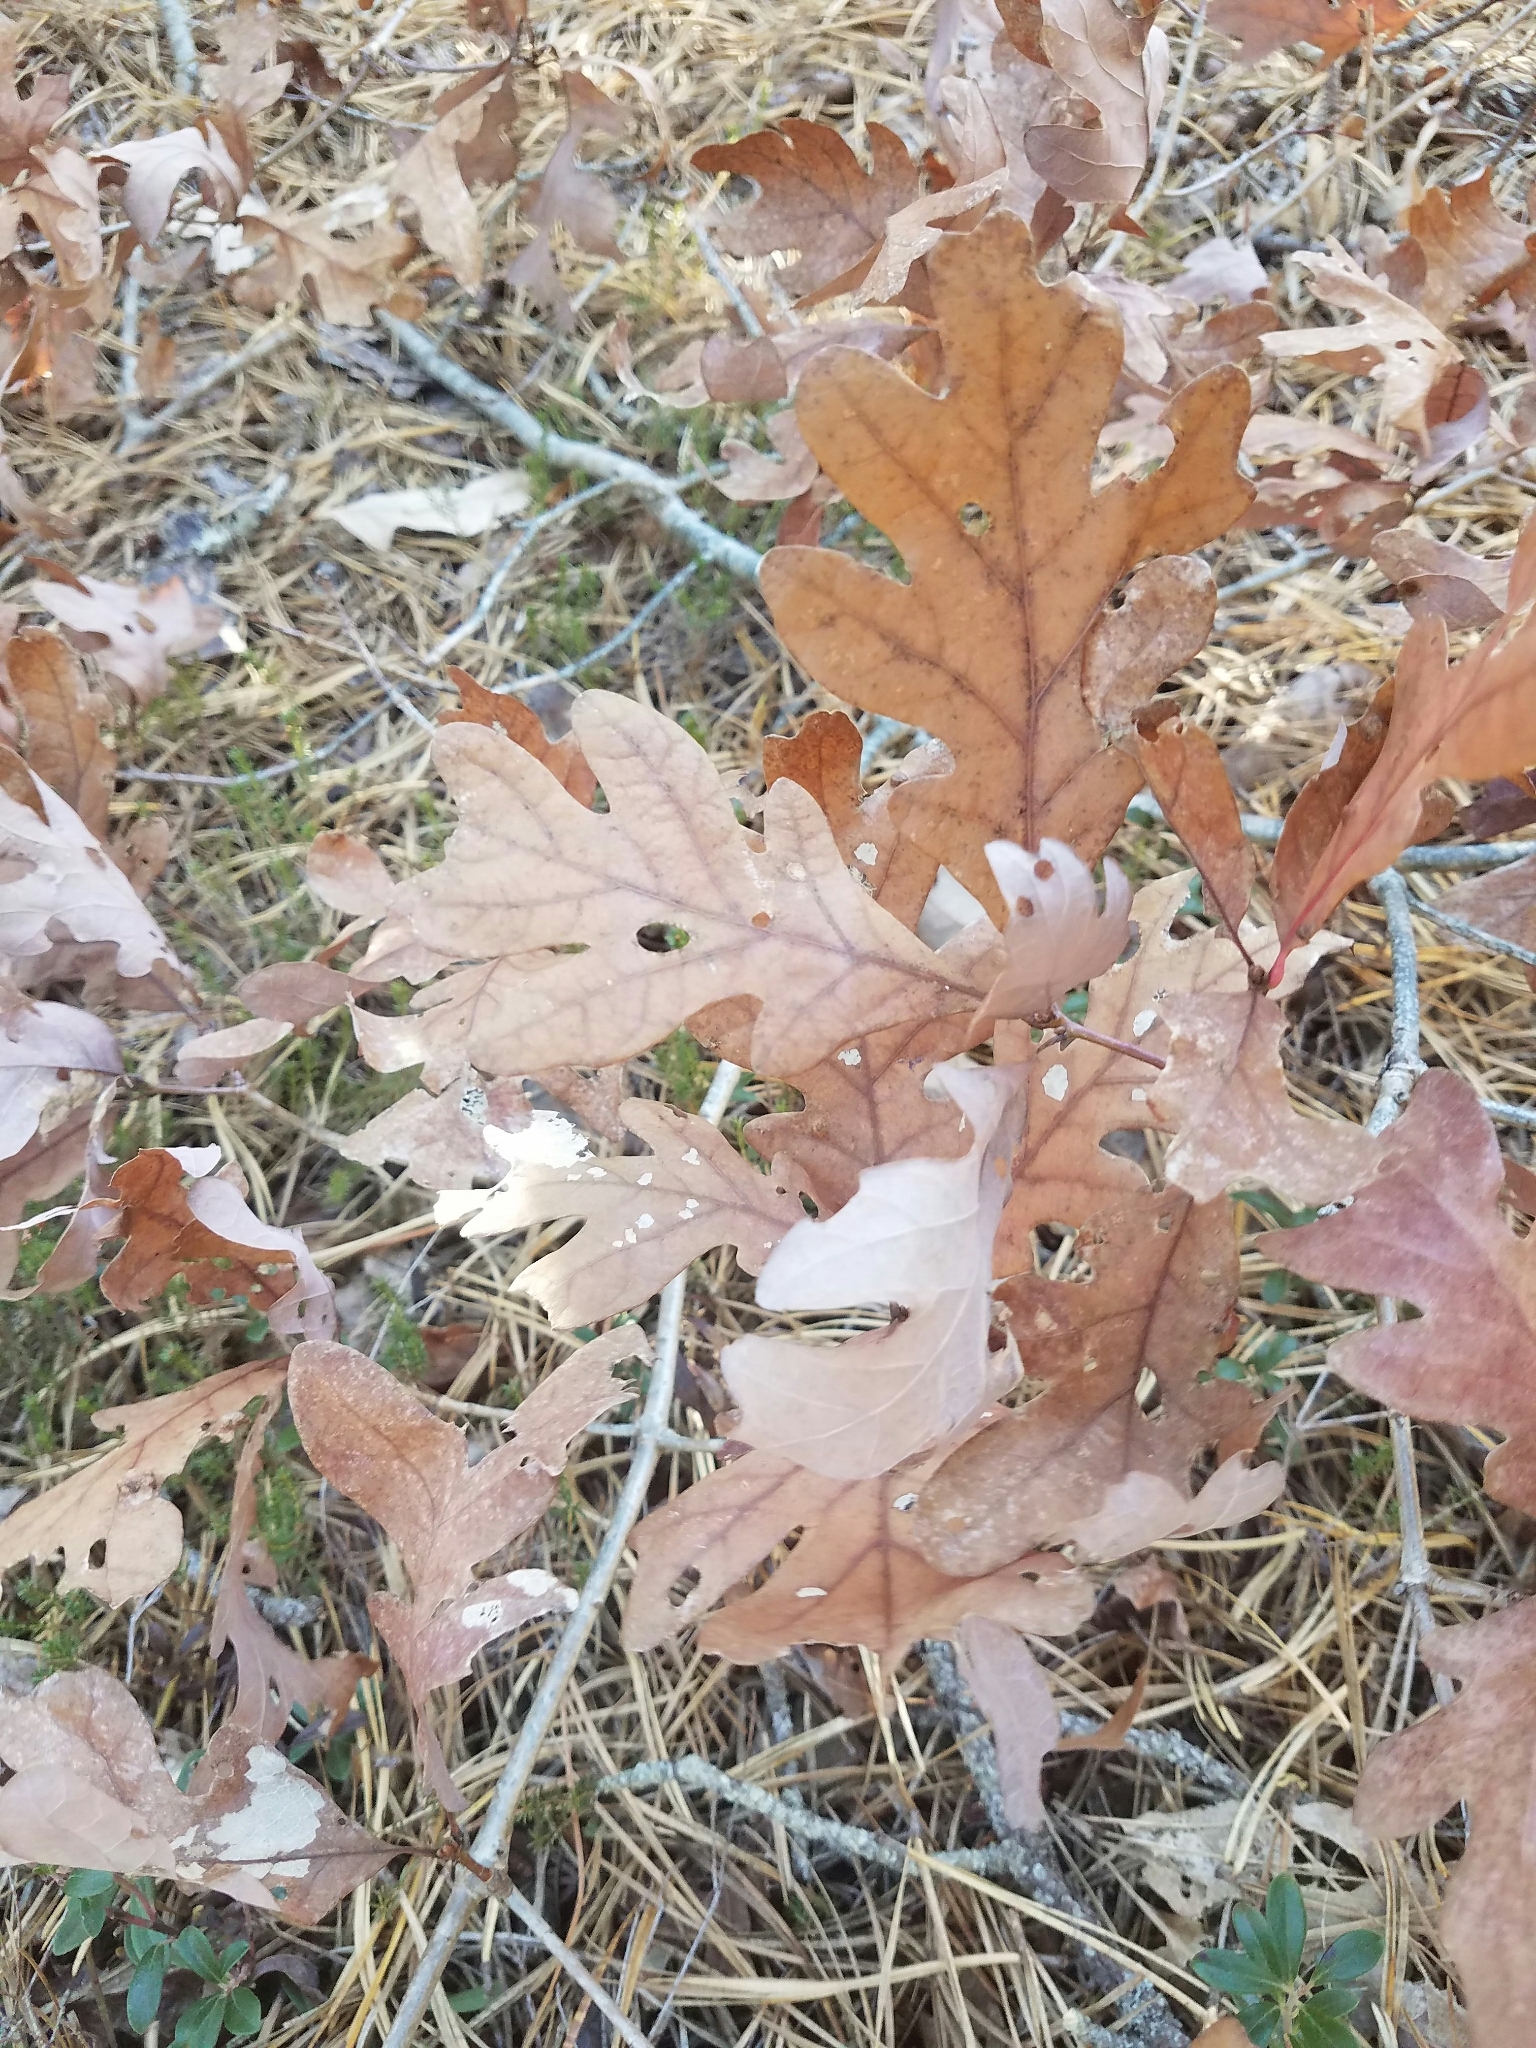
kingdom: Plantae
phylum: Tracheophyta
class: Magnoliopsida
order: Fagales
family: Fagaceae
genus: Quercus
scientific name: Quercus alba
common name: White oak
